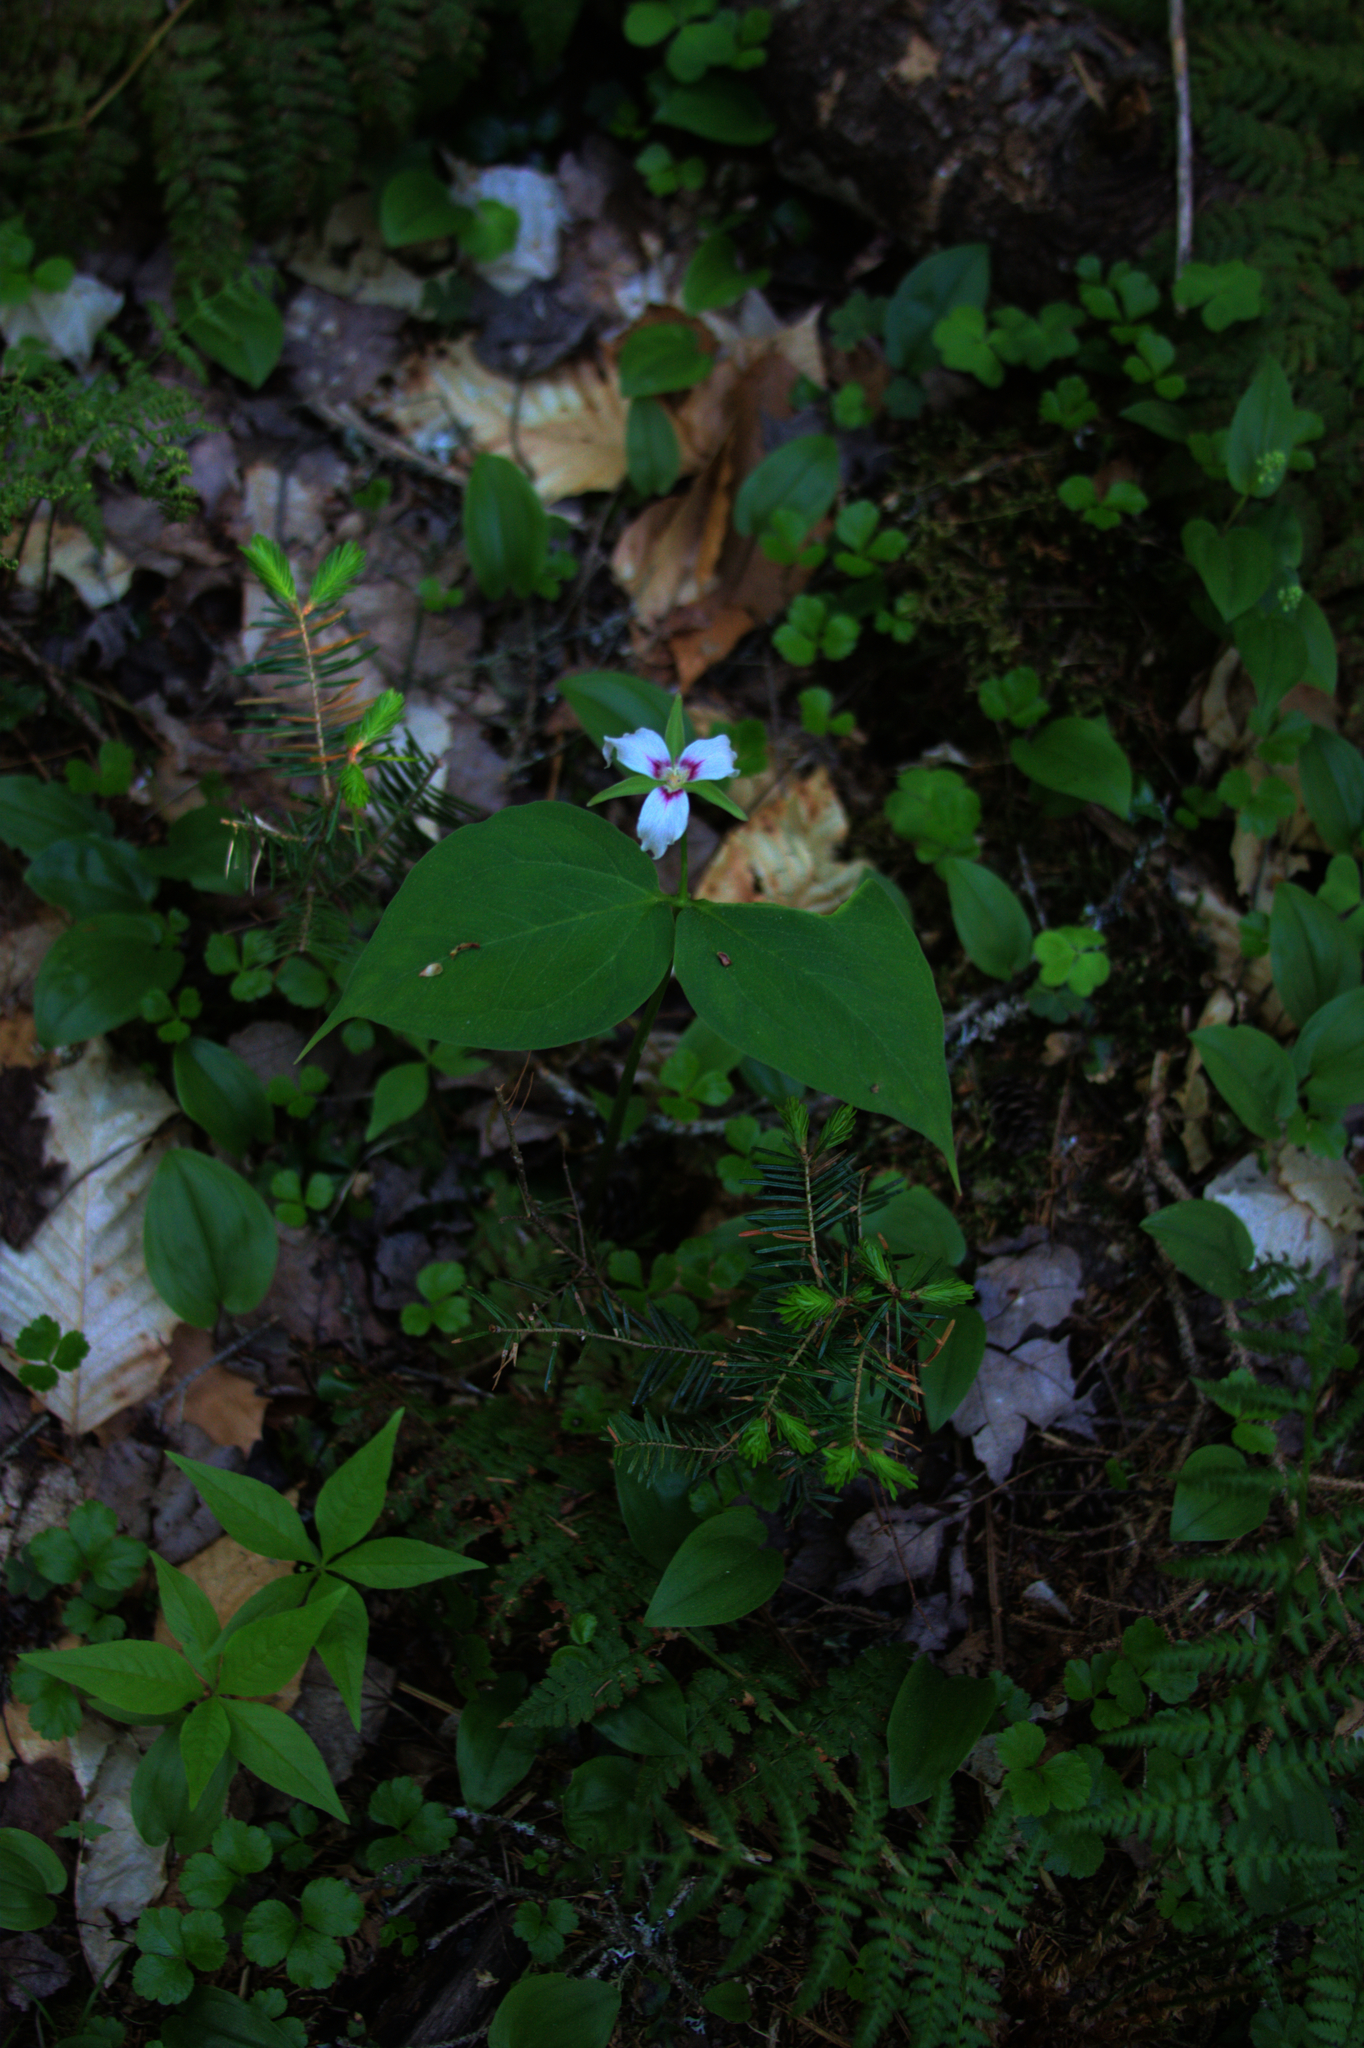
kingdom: Plantae
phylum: Tracheophyta
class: Liliopsida
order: Liliales
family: Melanthiaceae
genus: Trillium
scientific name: Trillium undulatum
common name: Paint trillium
